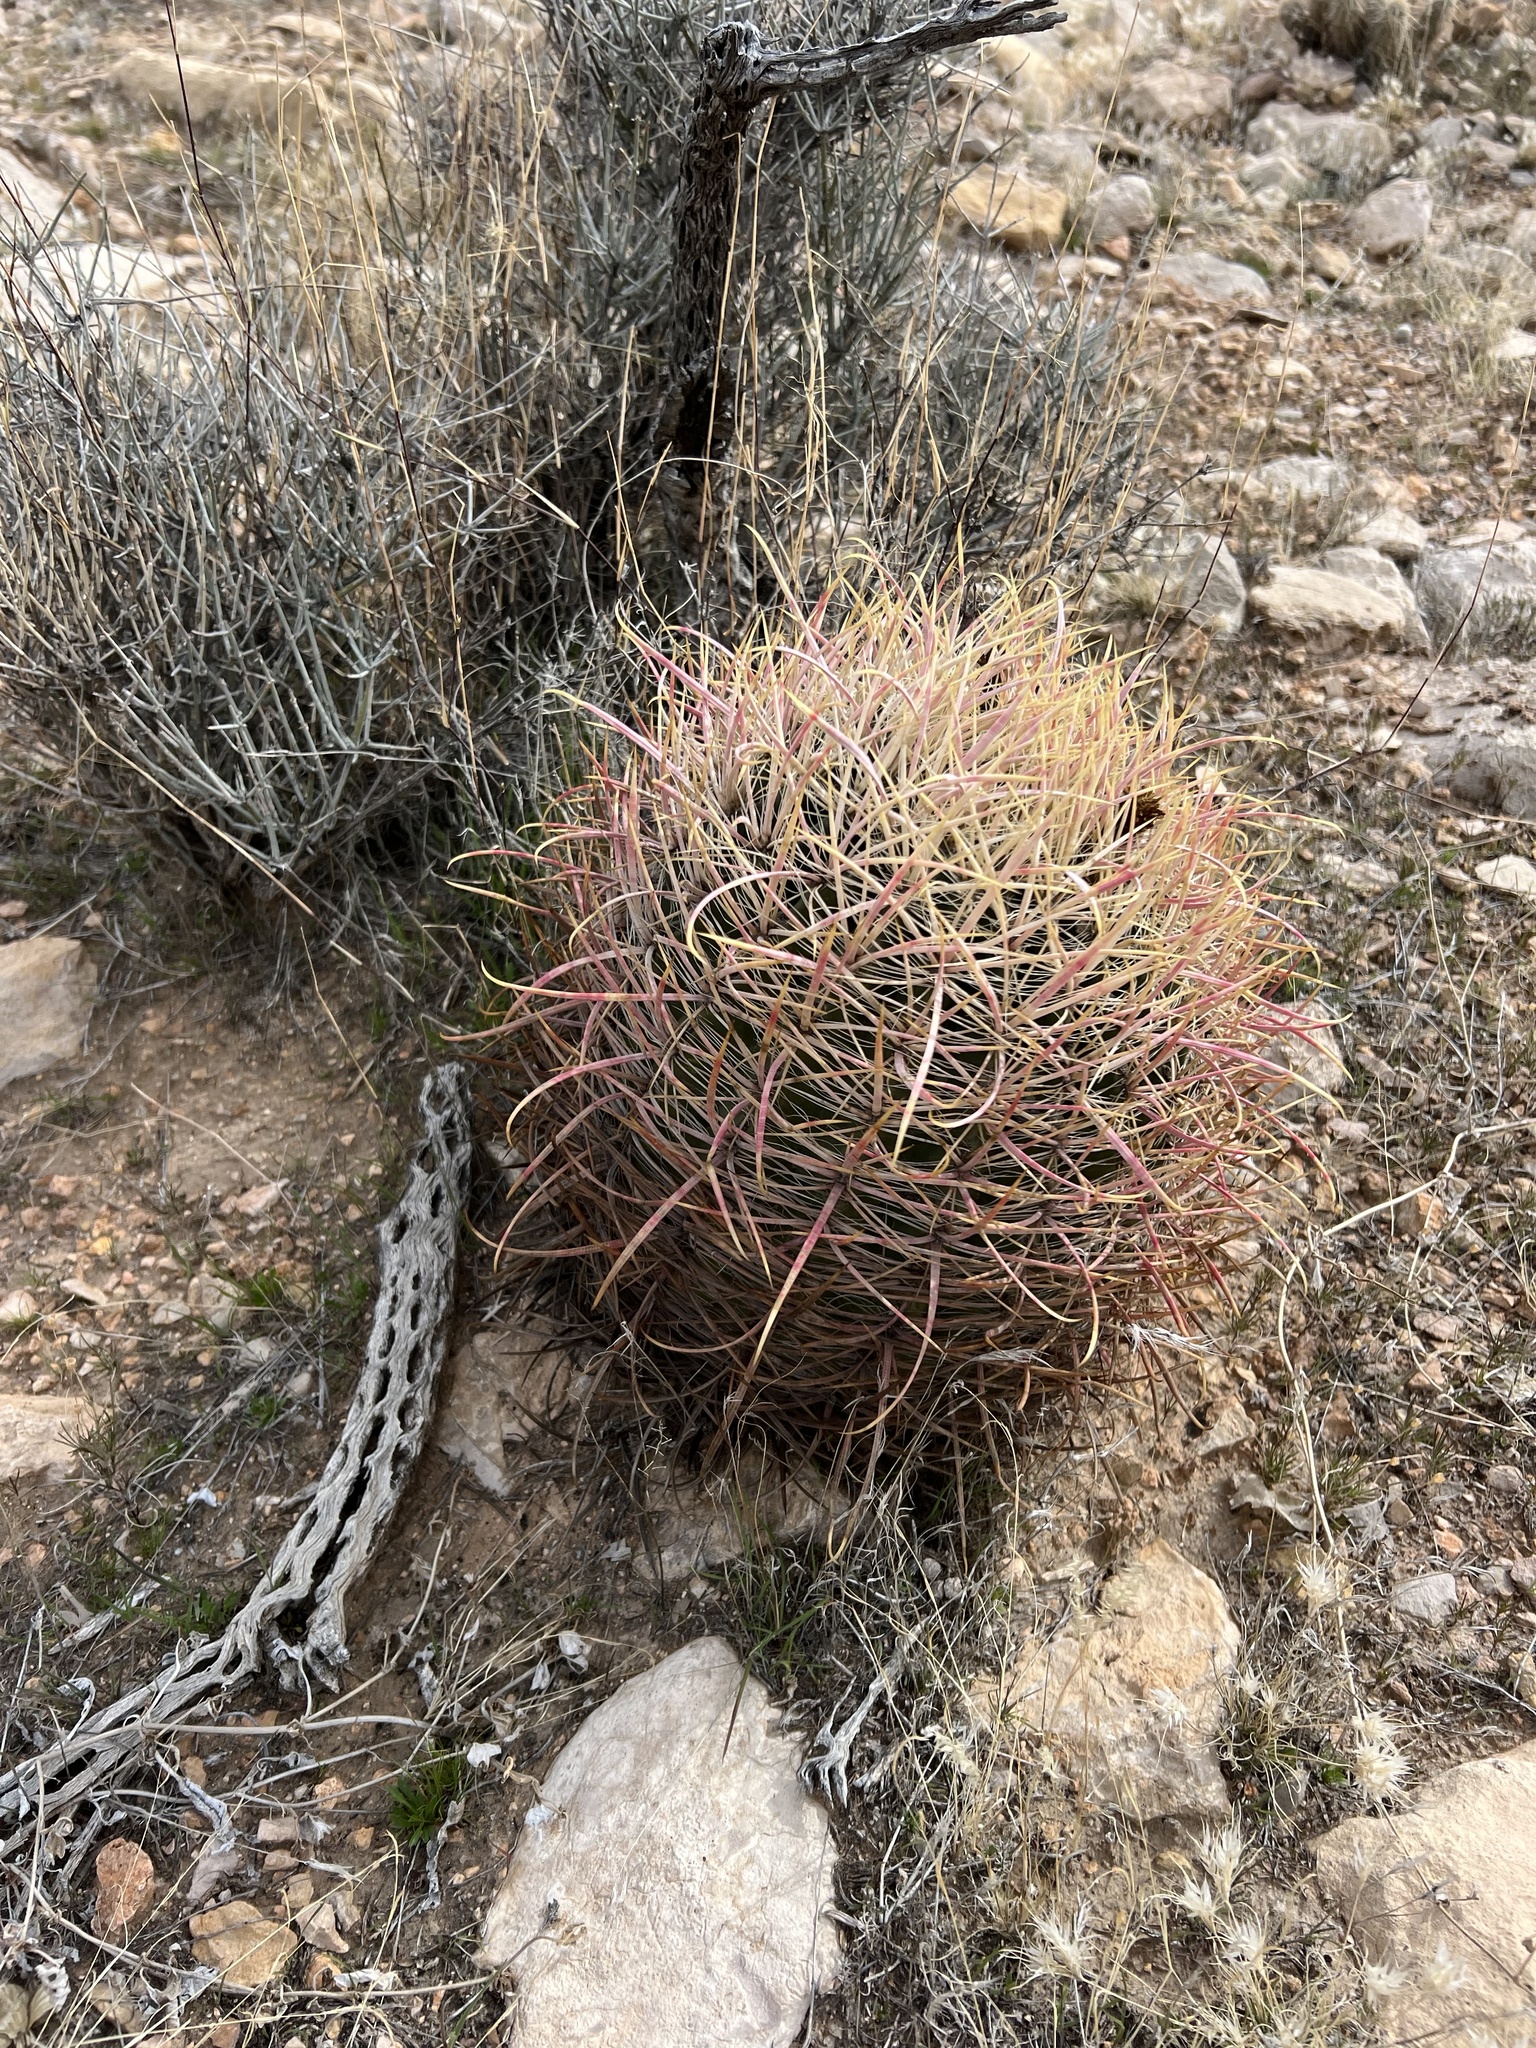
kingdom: Plantae
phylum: Tracheophyta
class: Magnoliopsida
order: Caryophyllales
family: Cactaceae
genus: Ferocactus
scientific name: Ferocactus cylindraceus
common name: California barrel cactus
